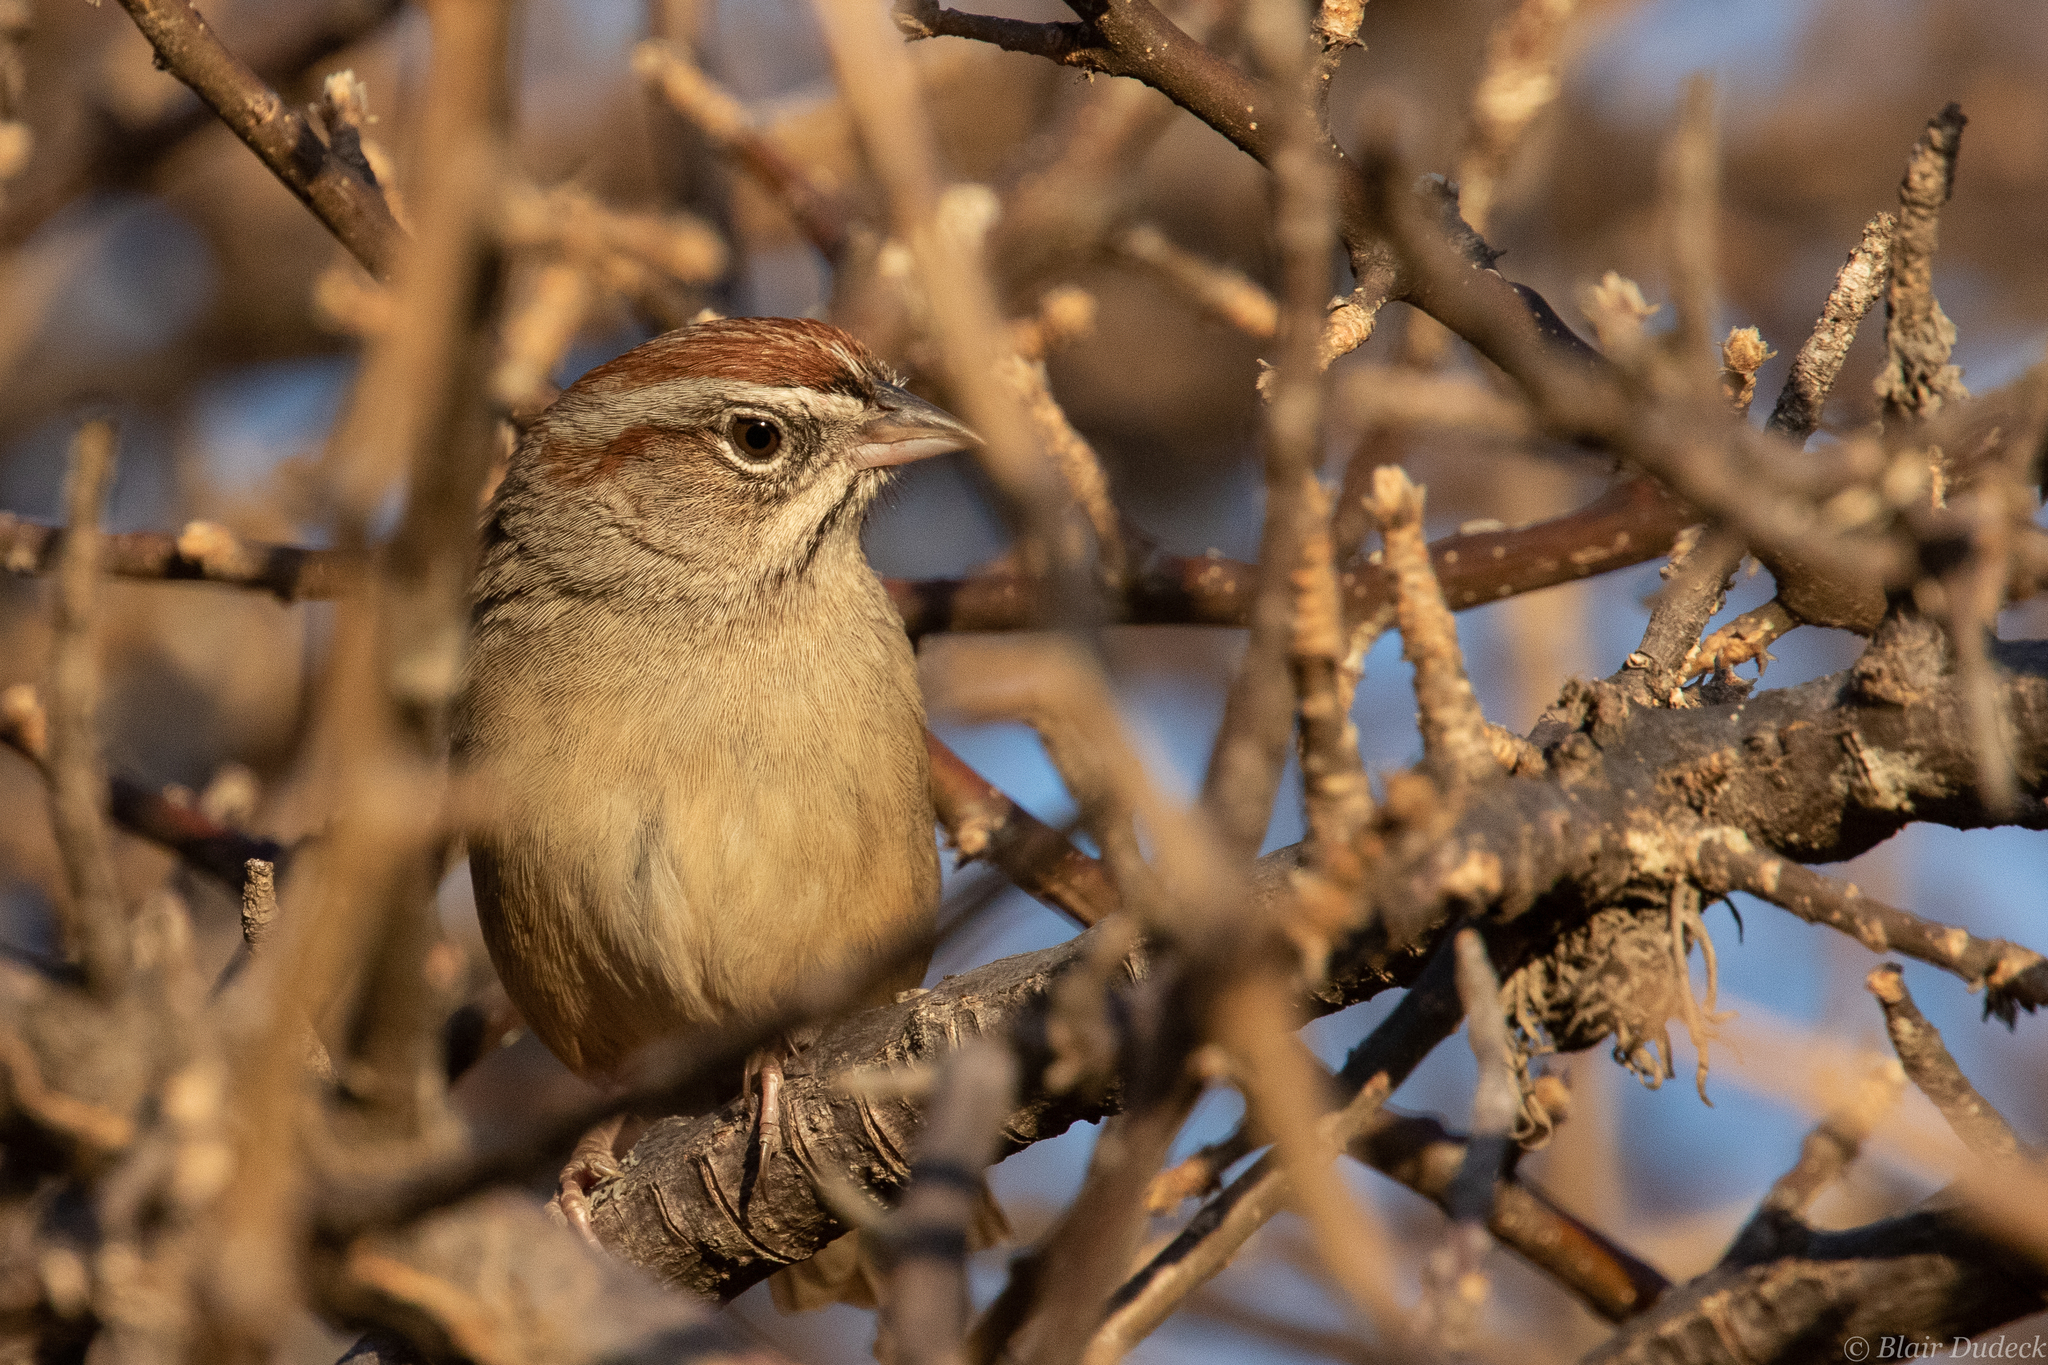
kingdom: Animalia
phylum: Chordata
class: Aves
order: Passeriformes
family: Passerellidae
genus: Aimophila
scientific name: Aimophila ruficeps
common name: Rufous-crowned sparrow
